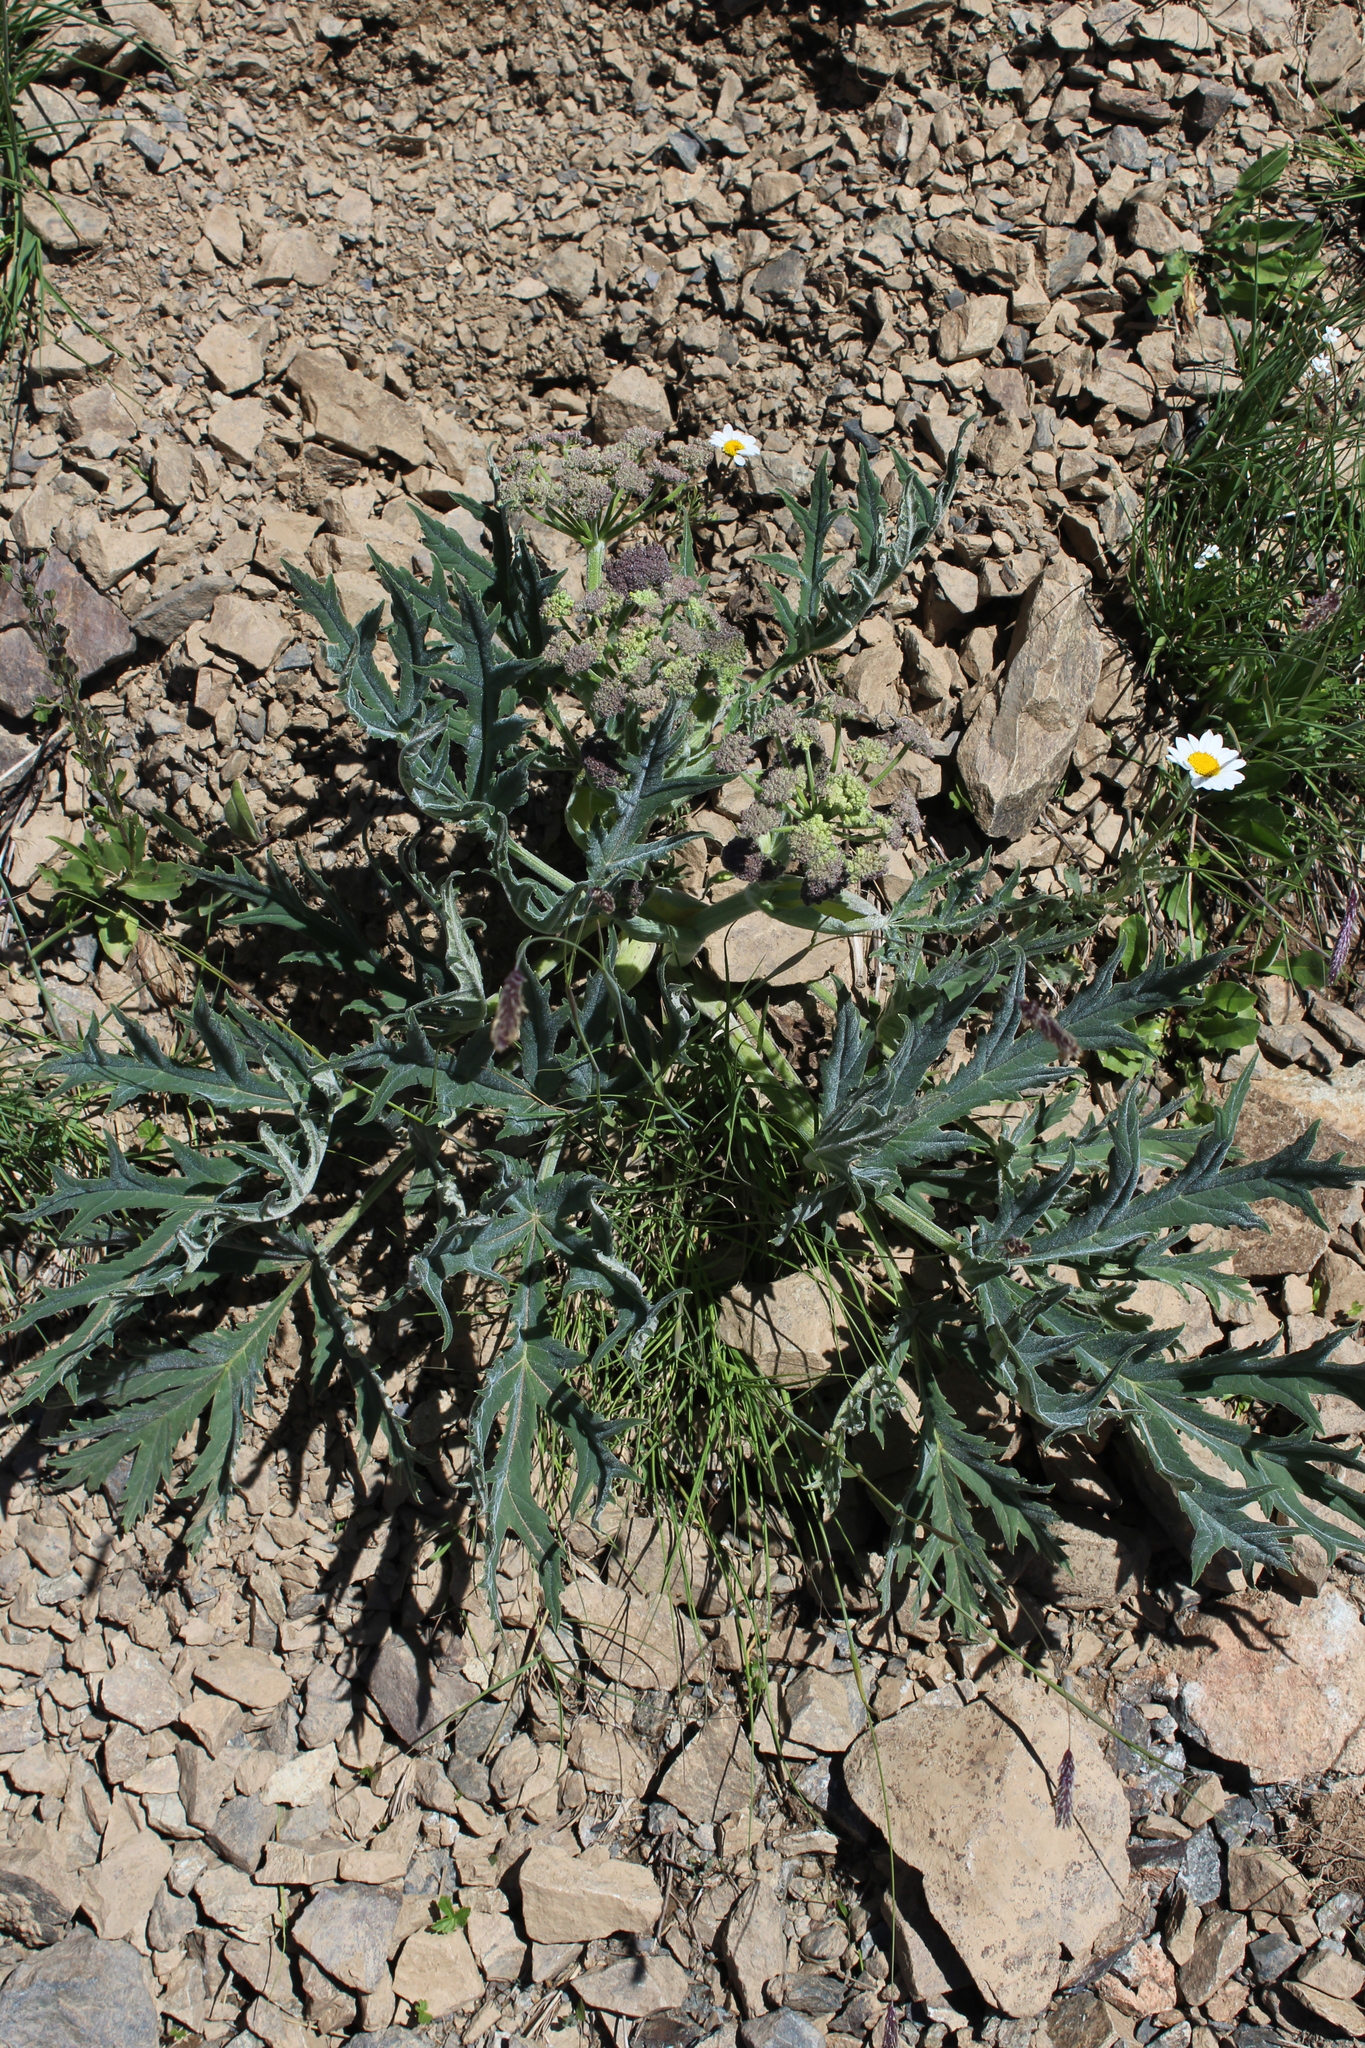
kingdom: Plantae
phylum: Tracheophyta
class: Magnoliopsida
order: Apiales
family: Apiaceae
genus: Heracleum
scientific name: Heracleum freynianum
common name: Freyn's cow-parsnip
